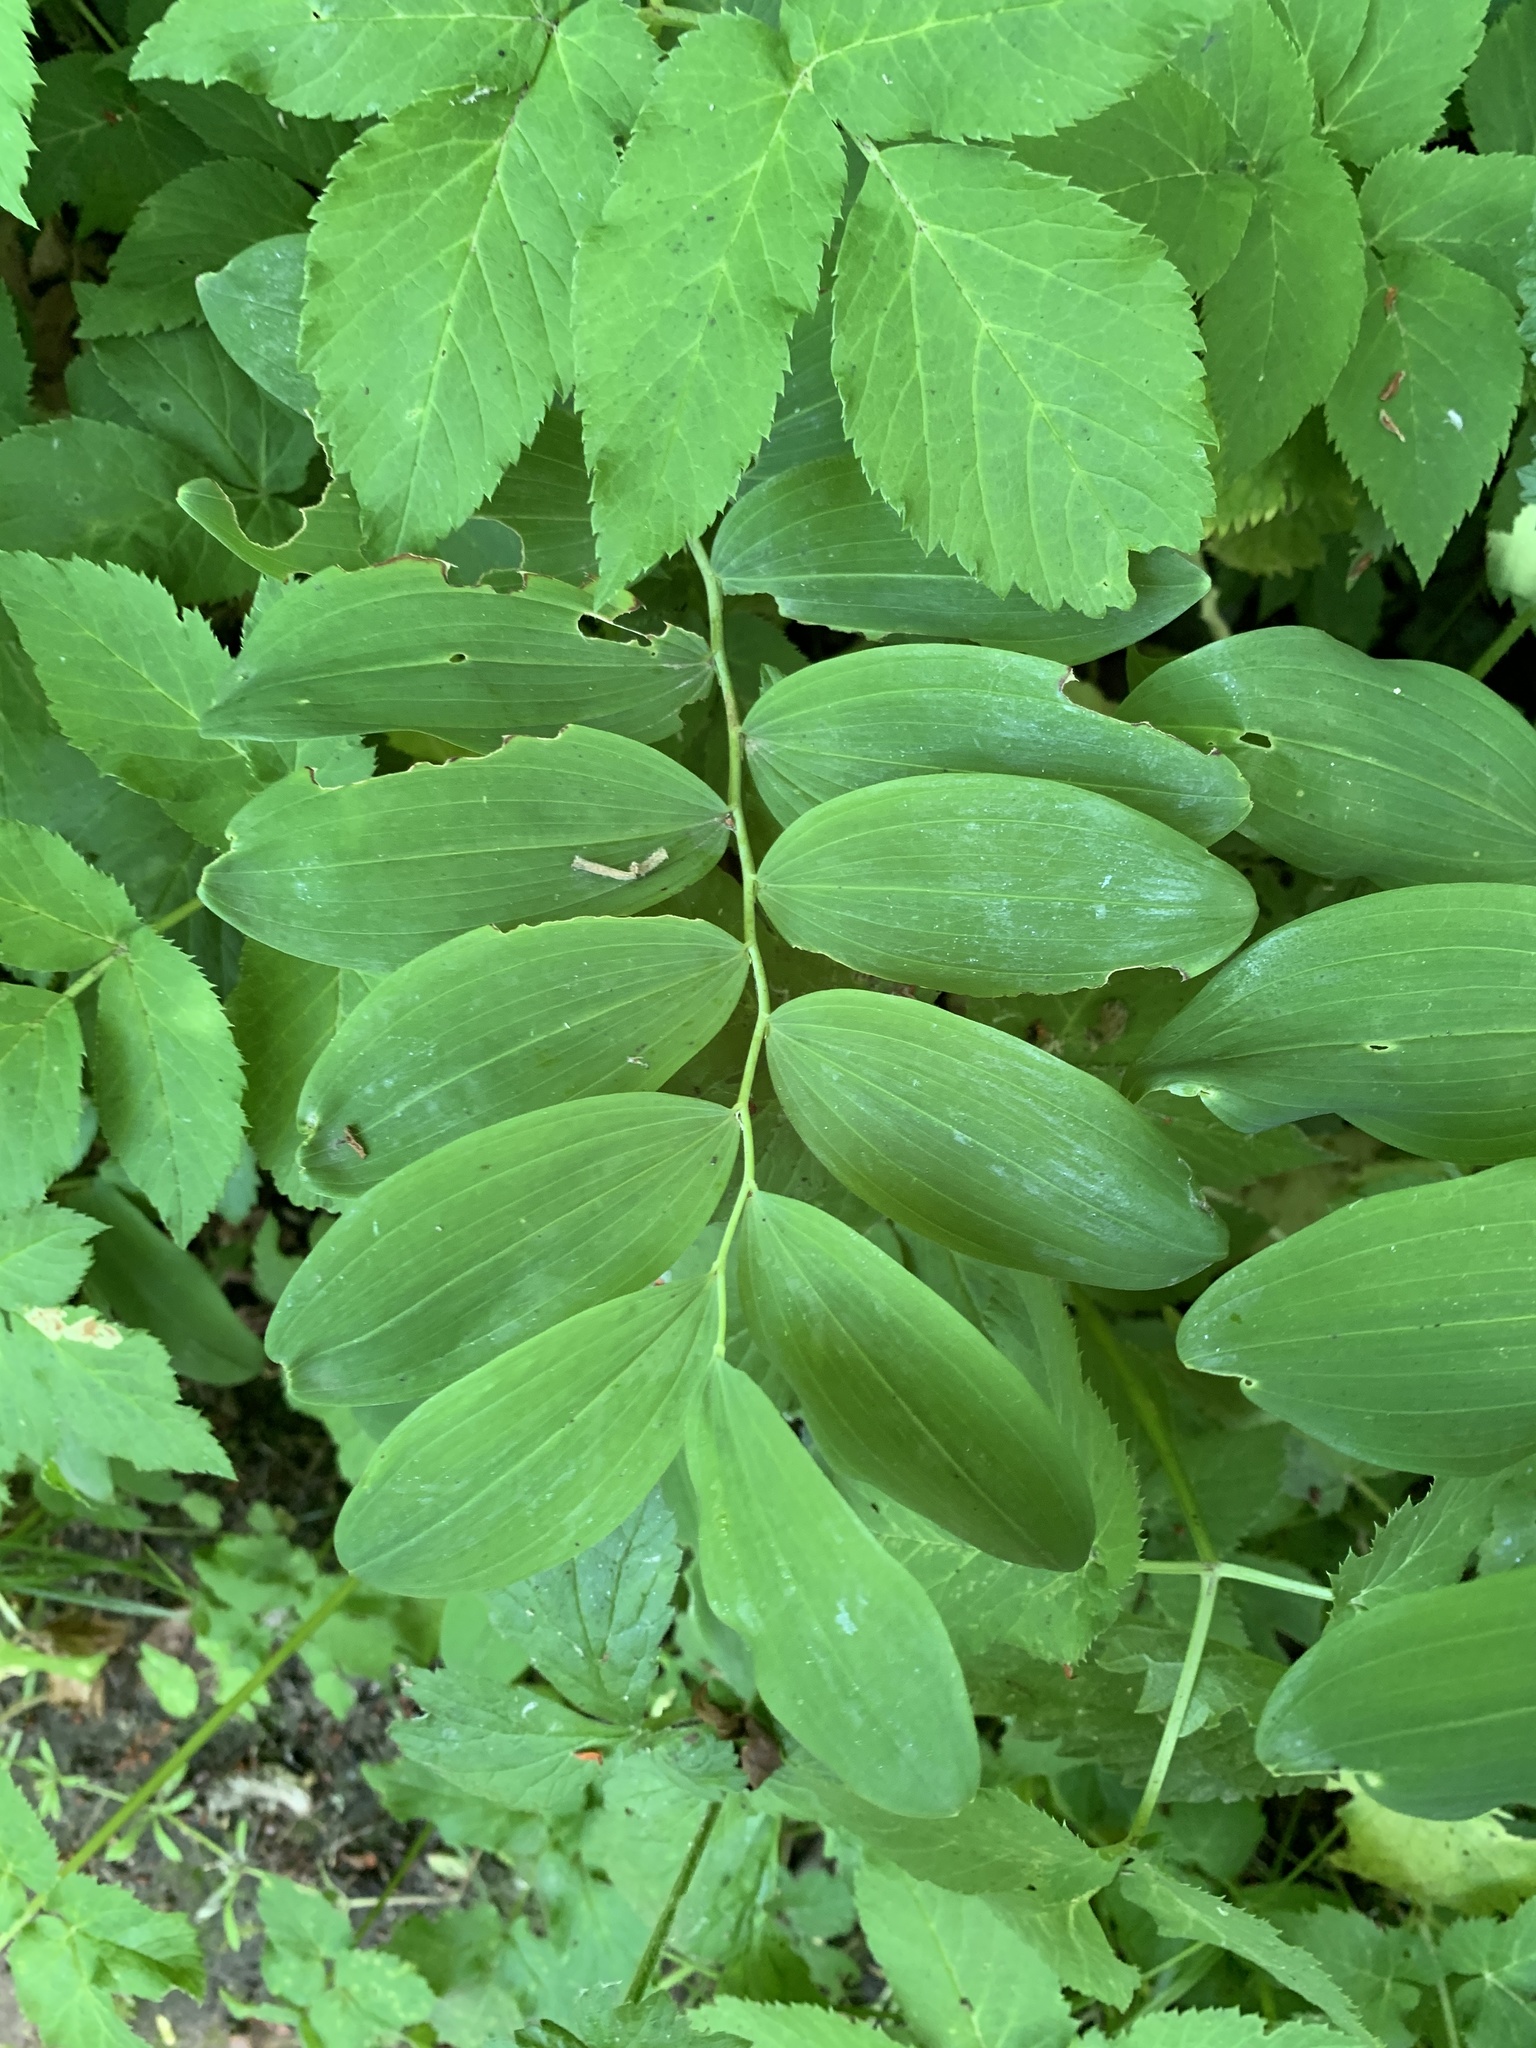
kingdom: Plantae
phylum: Tracheophyta
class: Liliopsida
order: Asparagales
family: Asparagaceae
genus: Polygonatum
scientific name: Polygonatum multiflorum
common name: Solomon's-seal
